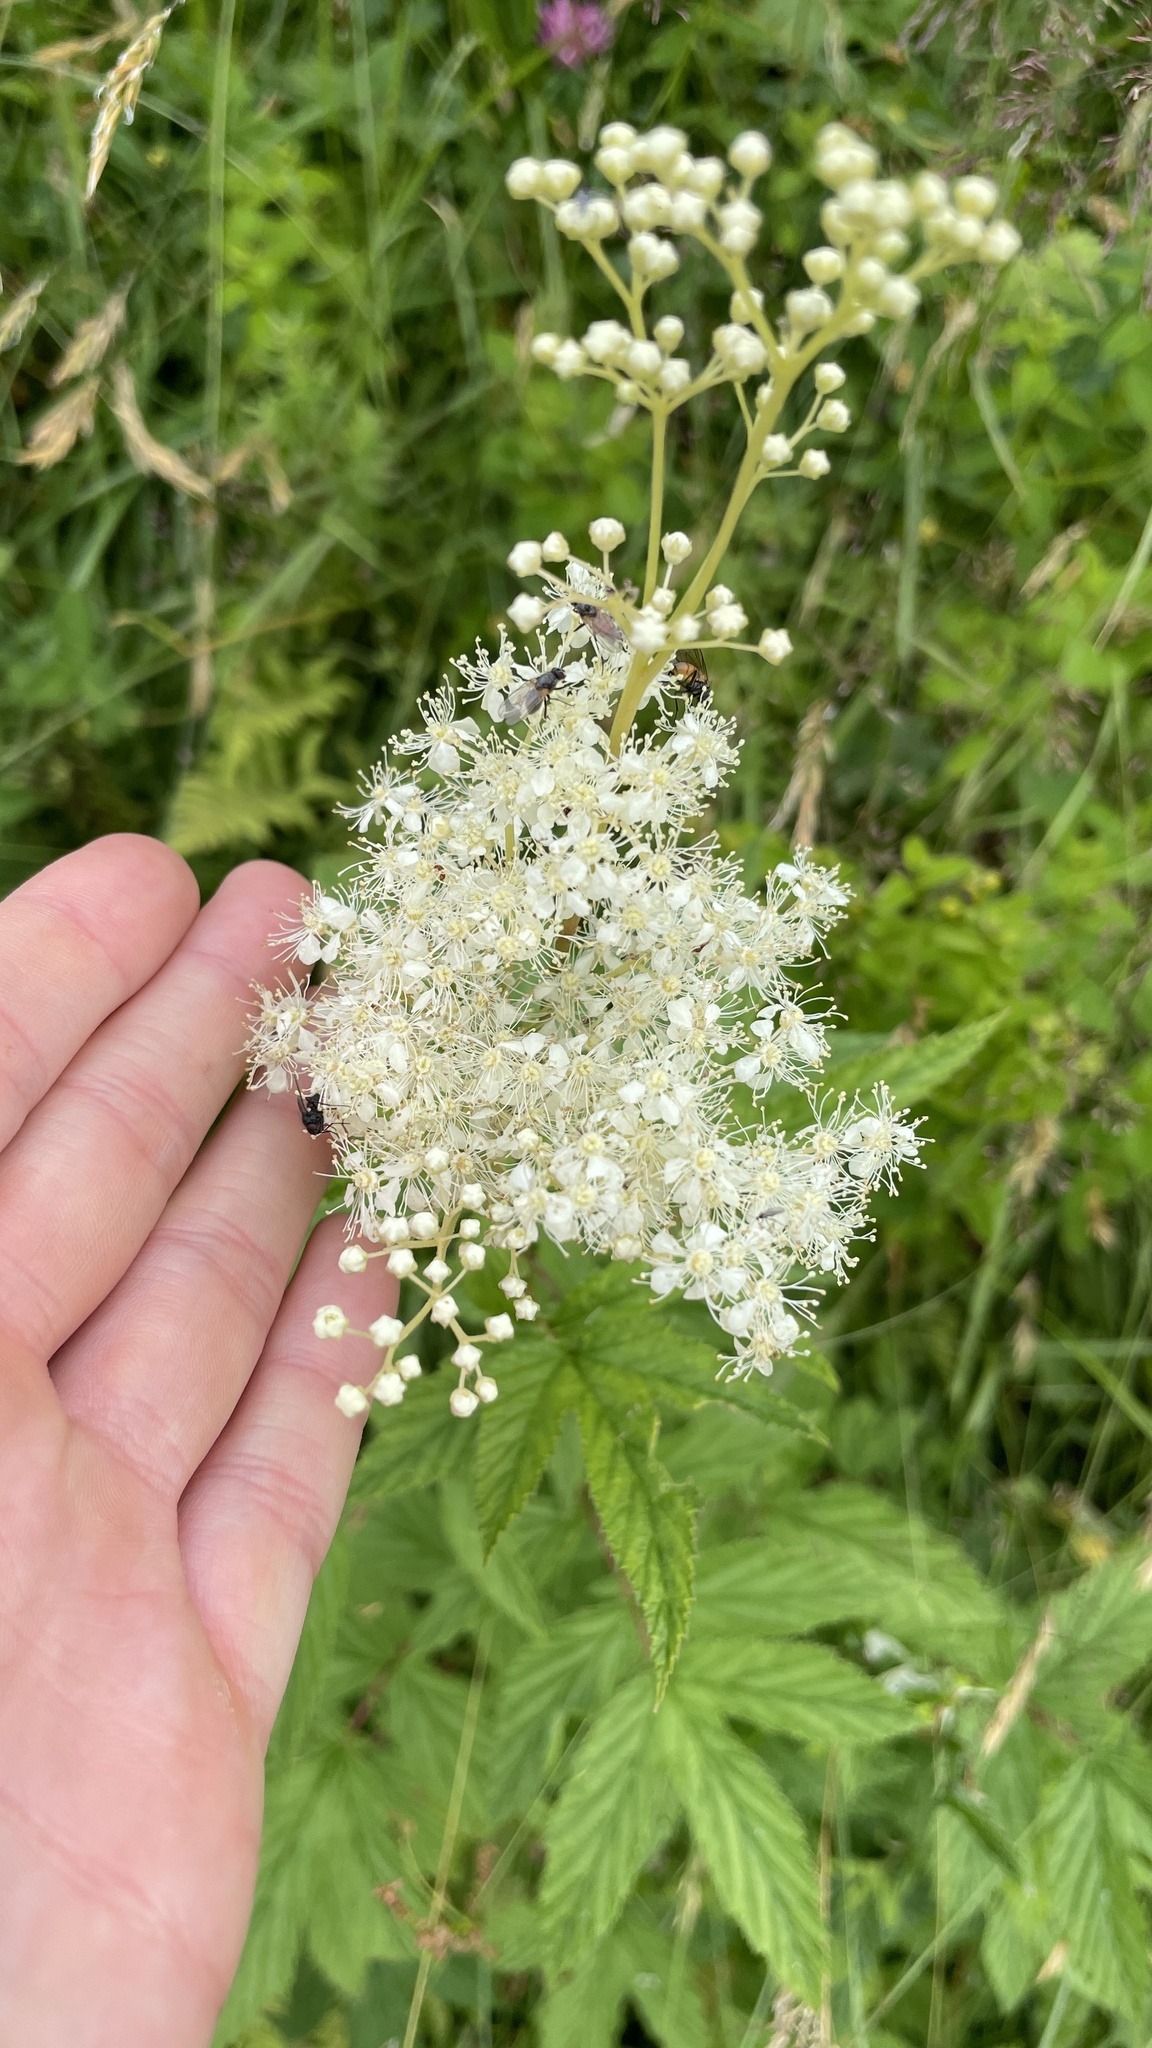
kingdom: Plantae
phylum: Tracheophyta
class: Magnoliopsida
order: Rosales
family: Rosaceae
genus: Filipendula
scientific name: Filipendula ulmaria
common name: Meadowsweet
